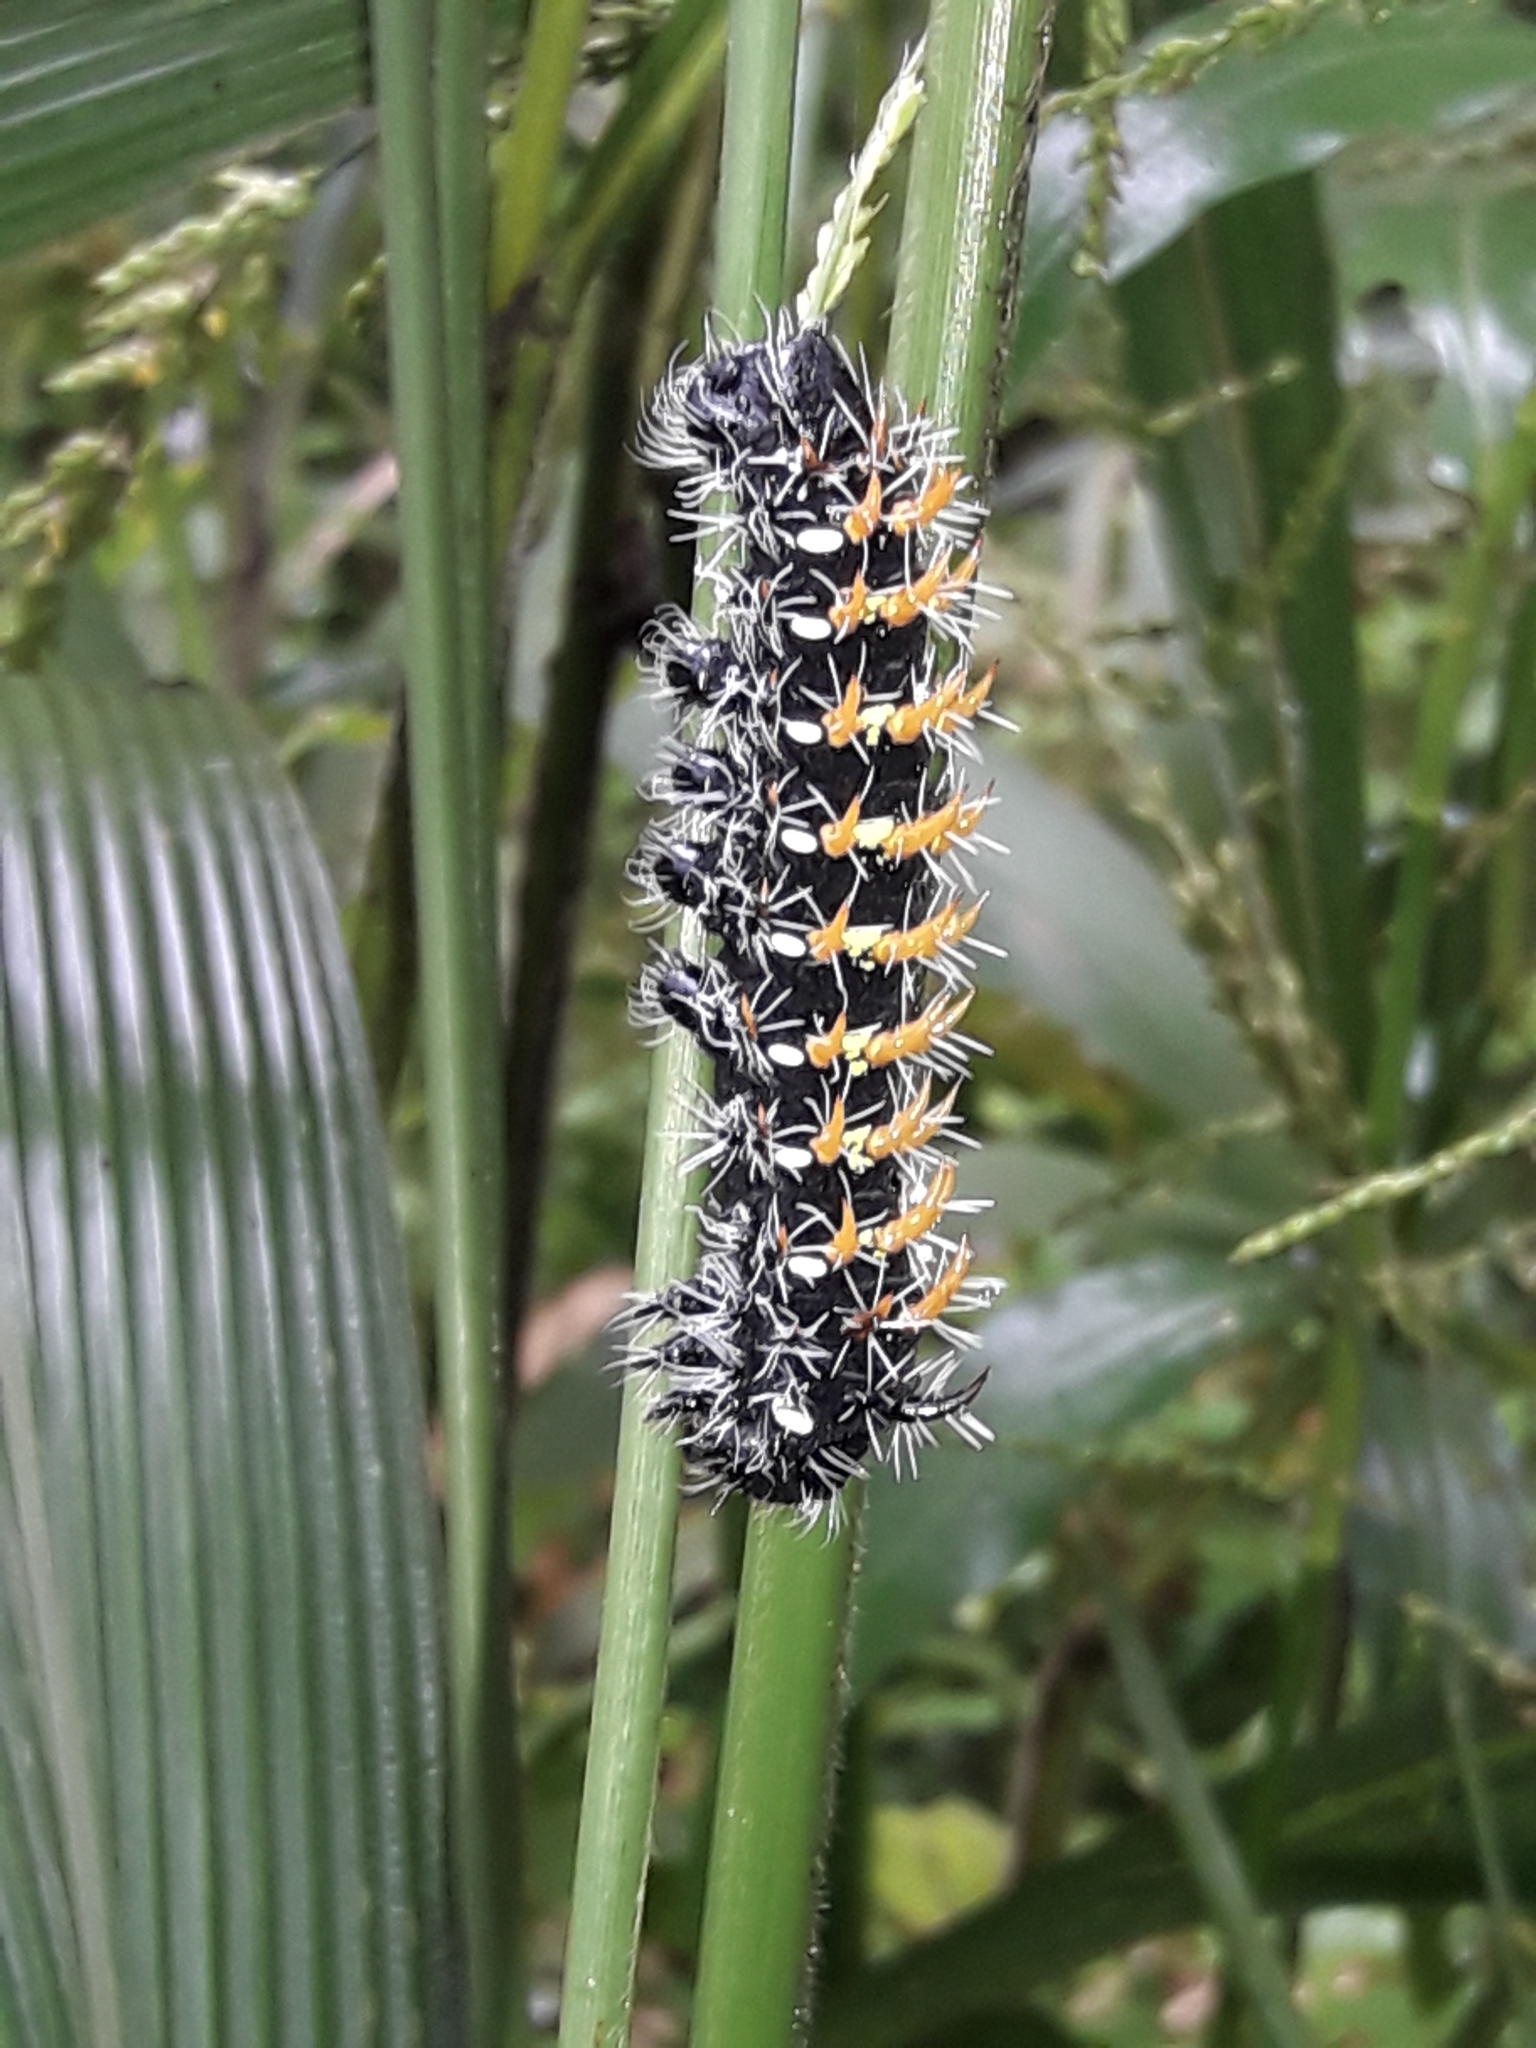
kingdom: Animalia
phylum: Arthropoda
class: Insecta
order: Lepidoptera
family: Saturniidae
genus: Nudaurelia
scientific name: Nudaurelia wahlbergi
